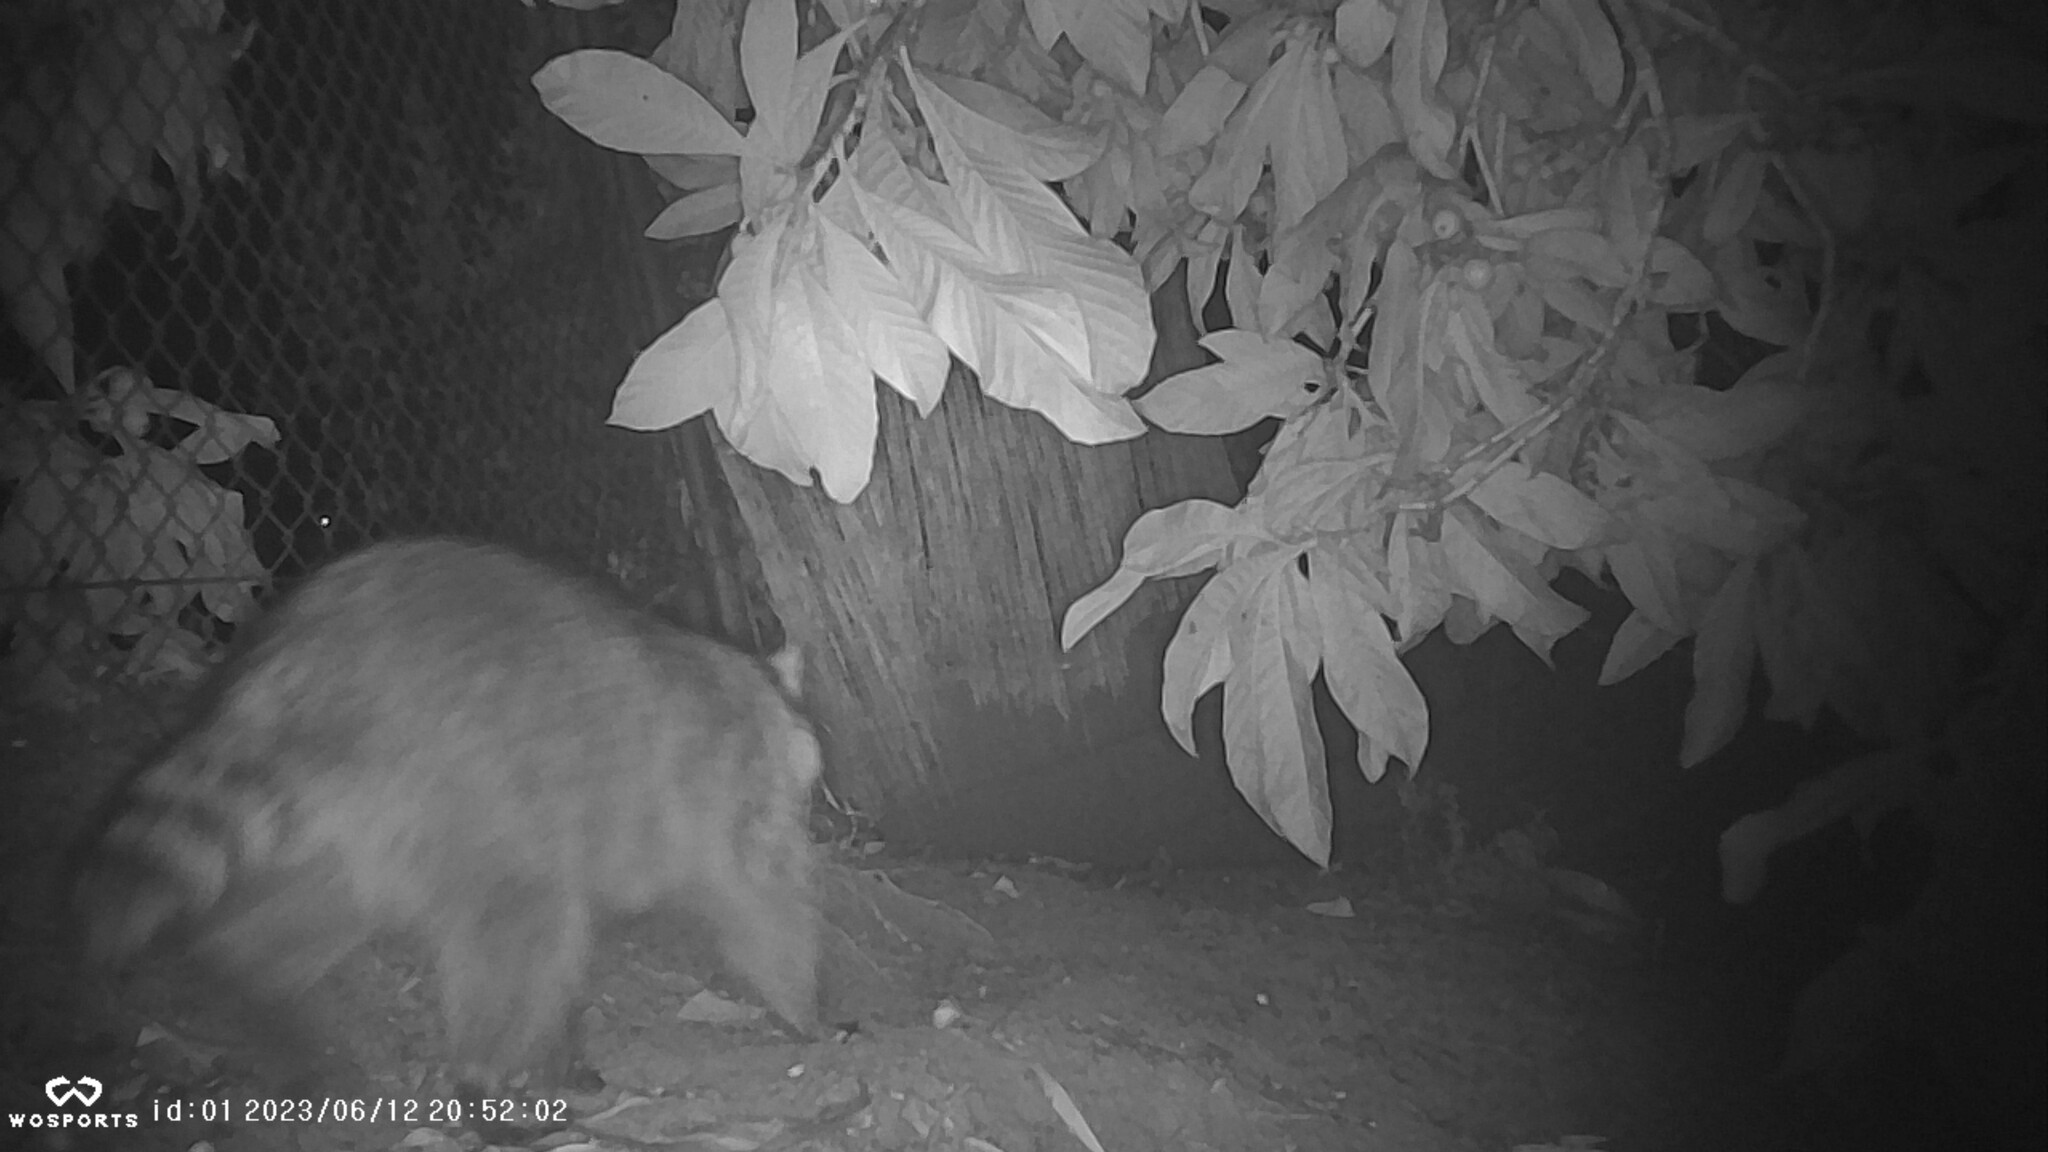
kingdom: Animalia
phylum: Chordata
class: Mammalia
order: Carnivora
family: Procyonidae
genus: Procyon
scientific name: Procyon lotor
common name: Raccoon
